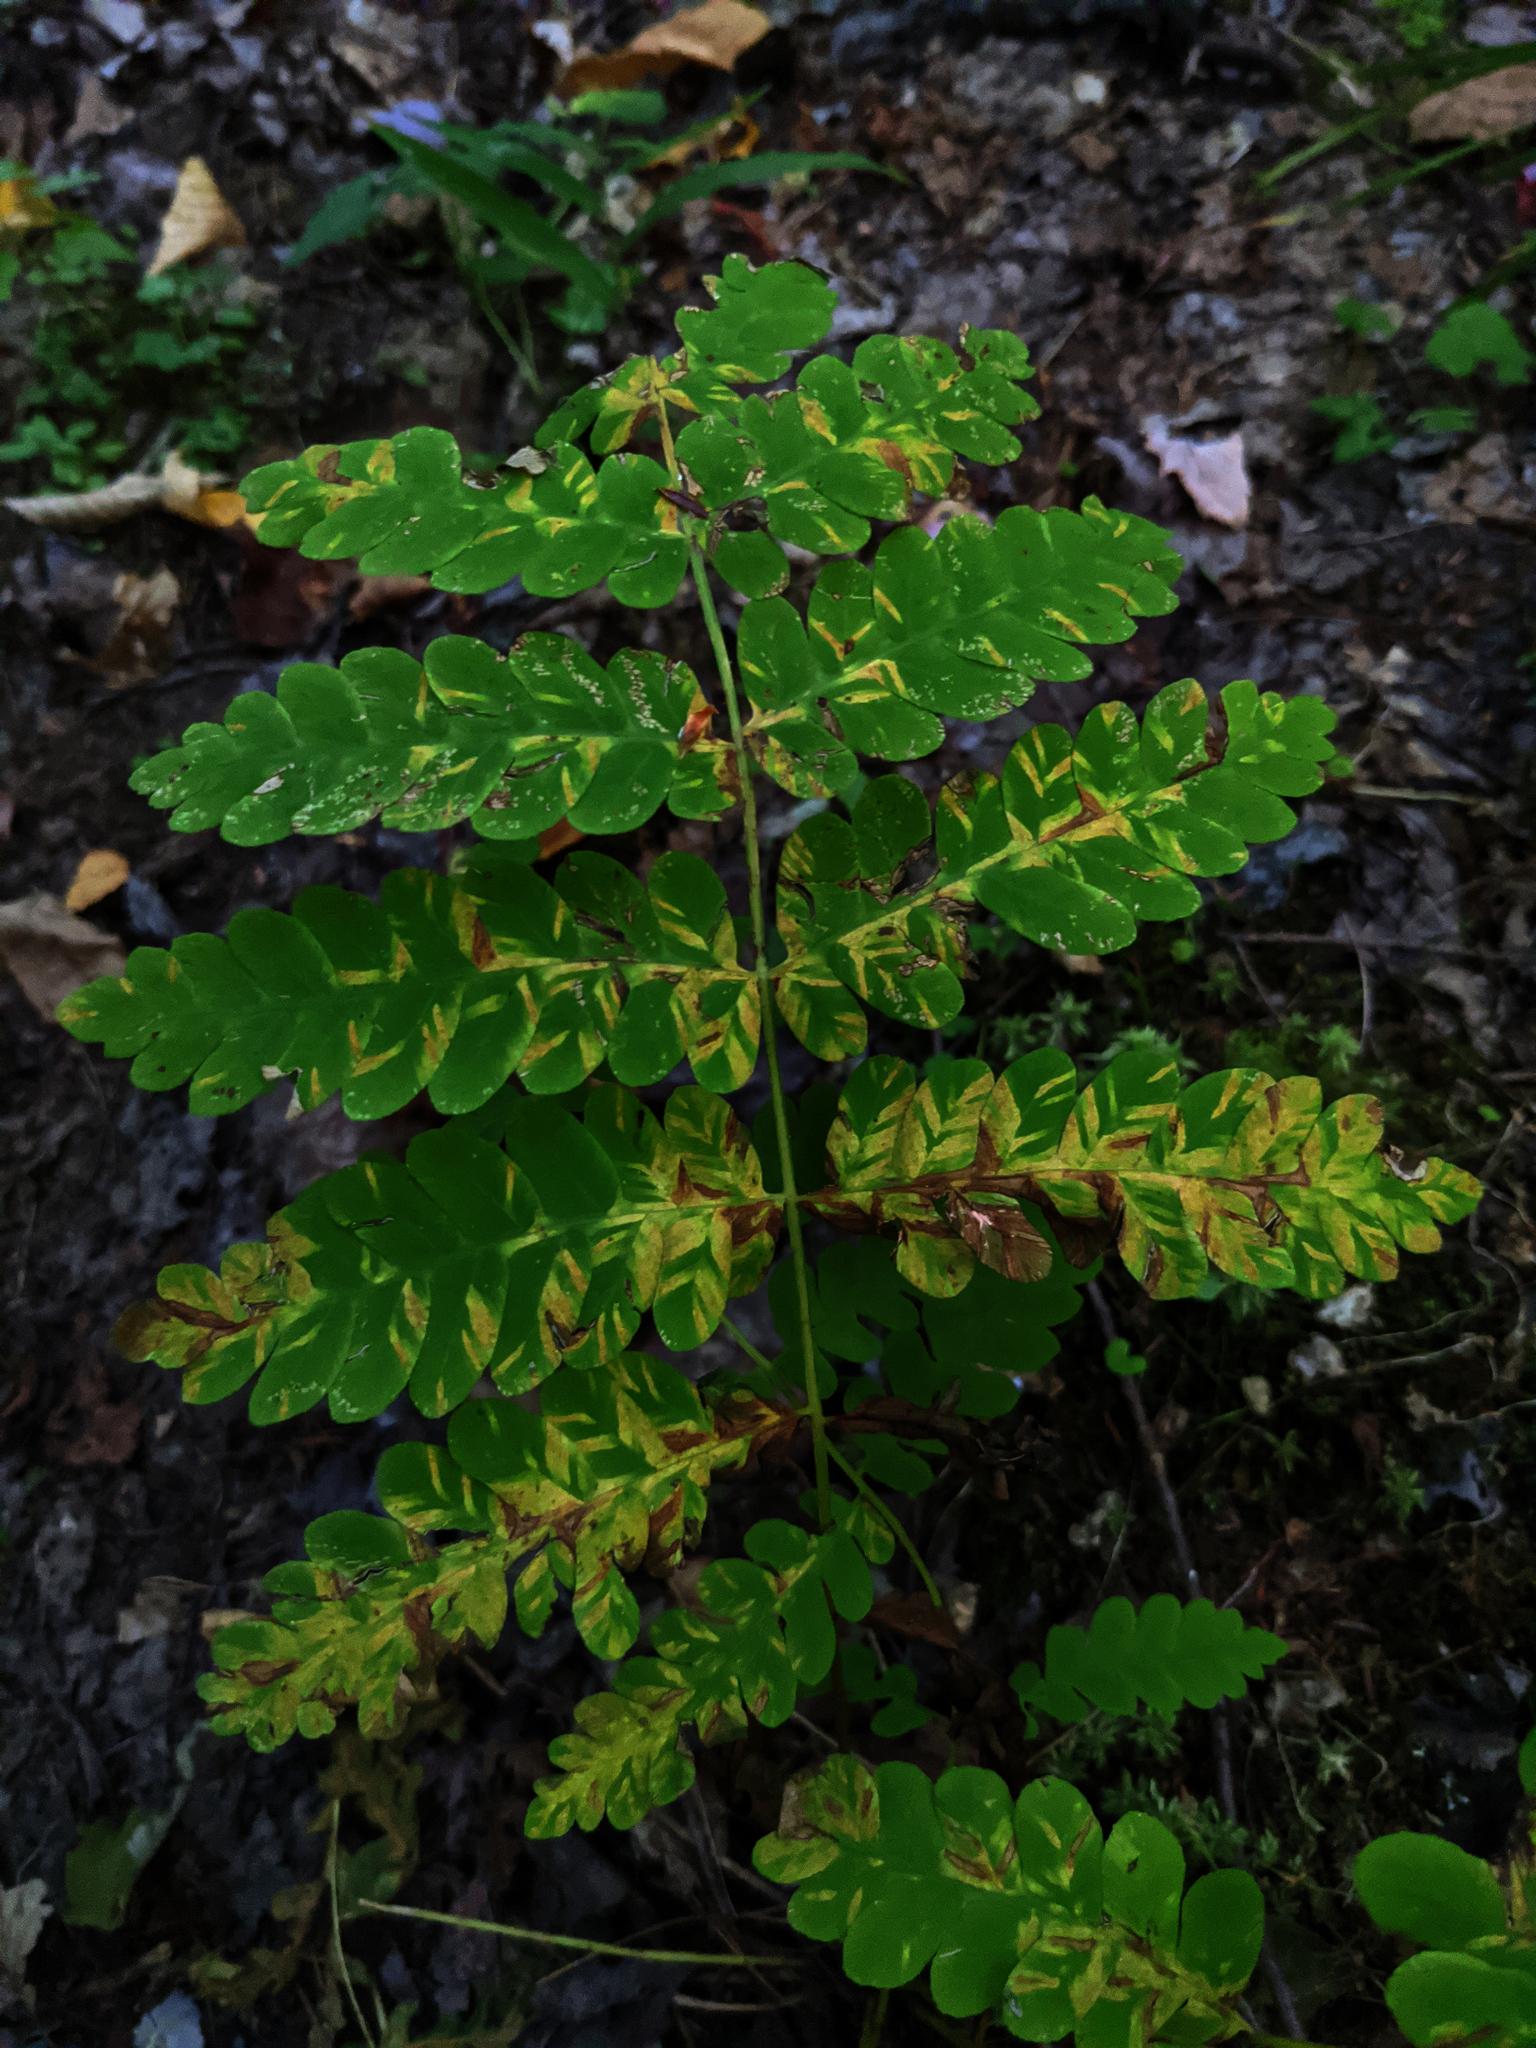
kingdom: Plantae
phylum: Tracheophyta
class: Polypodiopsida
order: Osmundales
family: Osmundaceae
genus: Claytosmunda
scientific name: Claytosmunda claytoniana
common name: Clayton's fern
